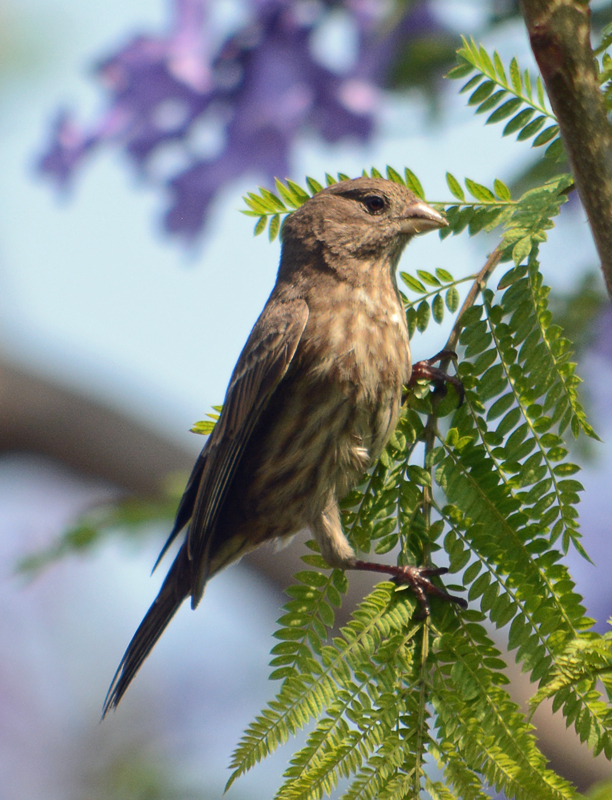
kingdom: Animalia
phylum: Chordata
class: Aves
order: Passeriformes
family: Fringillidae
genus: Haemorhous
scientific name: Haemorhous mexicanus
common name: House finch
